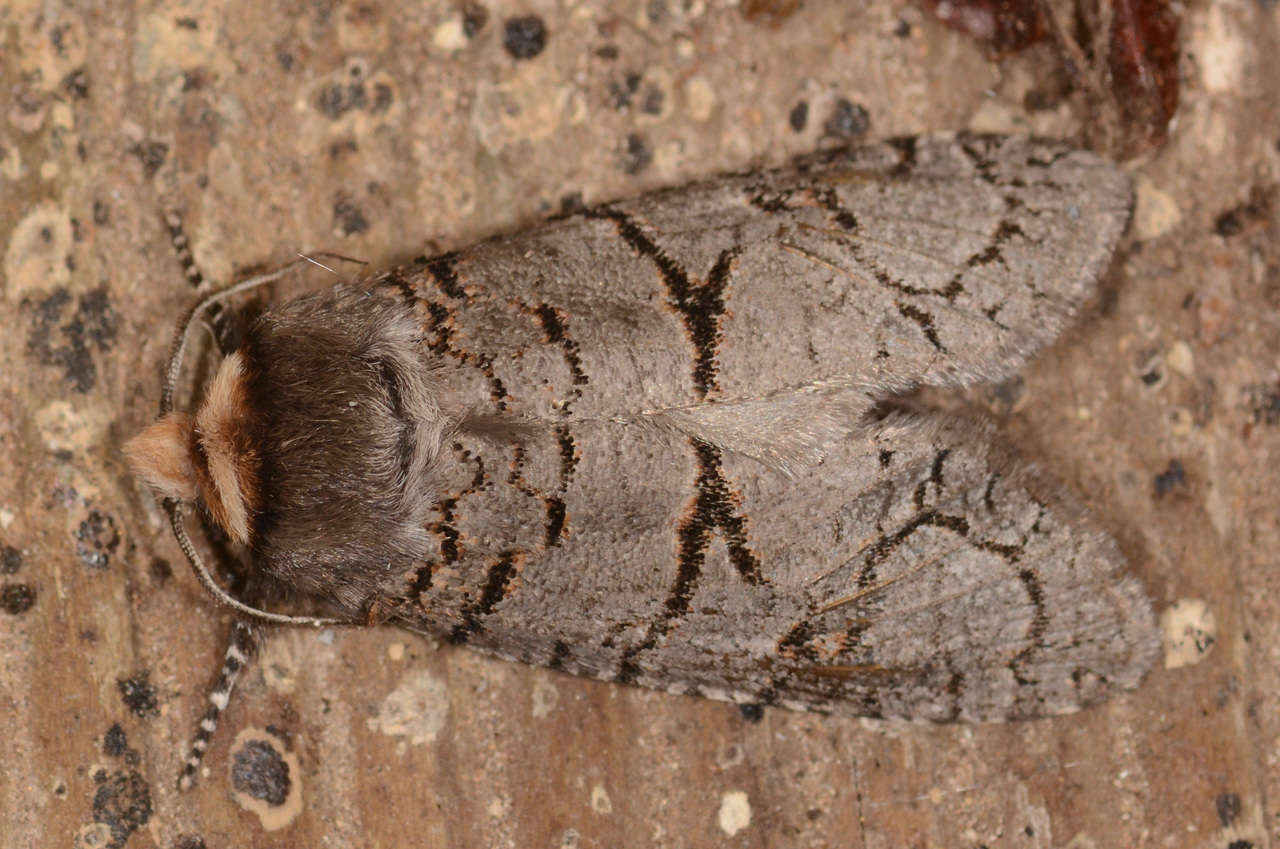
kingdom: Animalia
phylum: Arthropoda
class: Insecta
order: Lepidoptera
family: Cossidae
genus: Zyganisus
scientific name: Zyganisus fulvicollis
